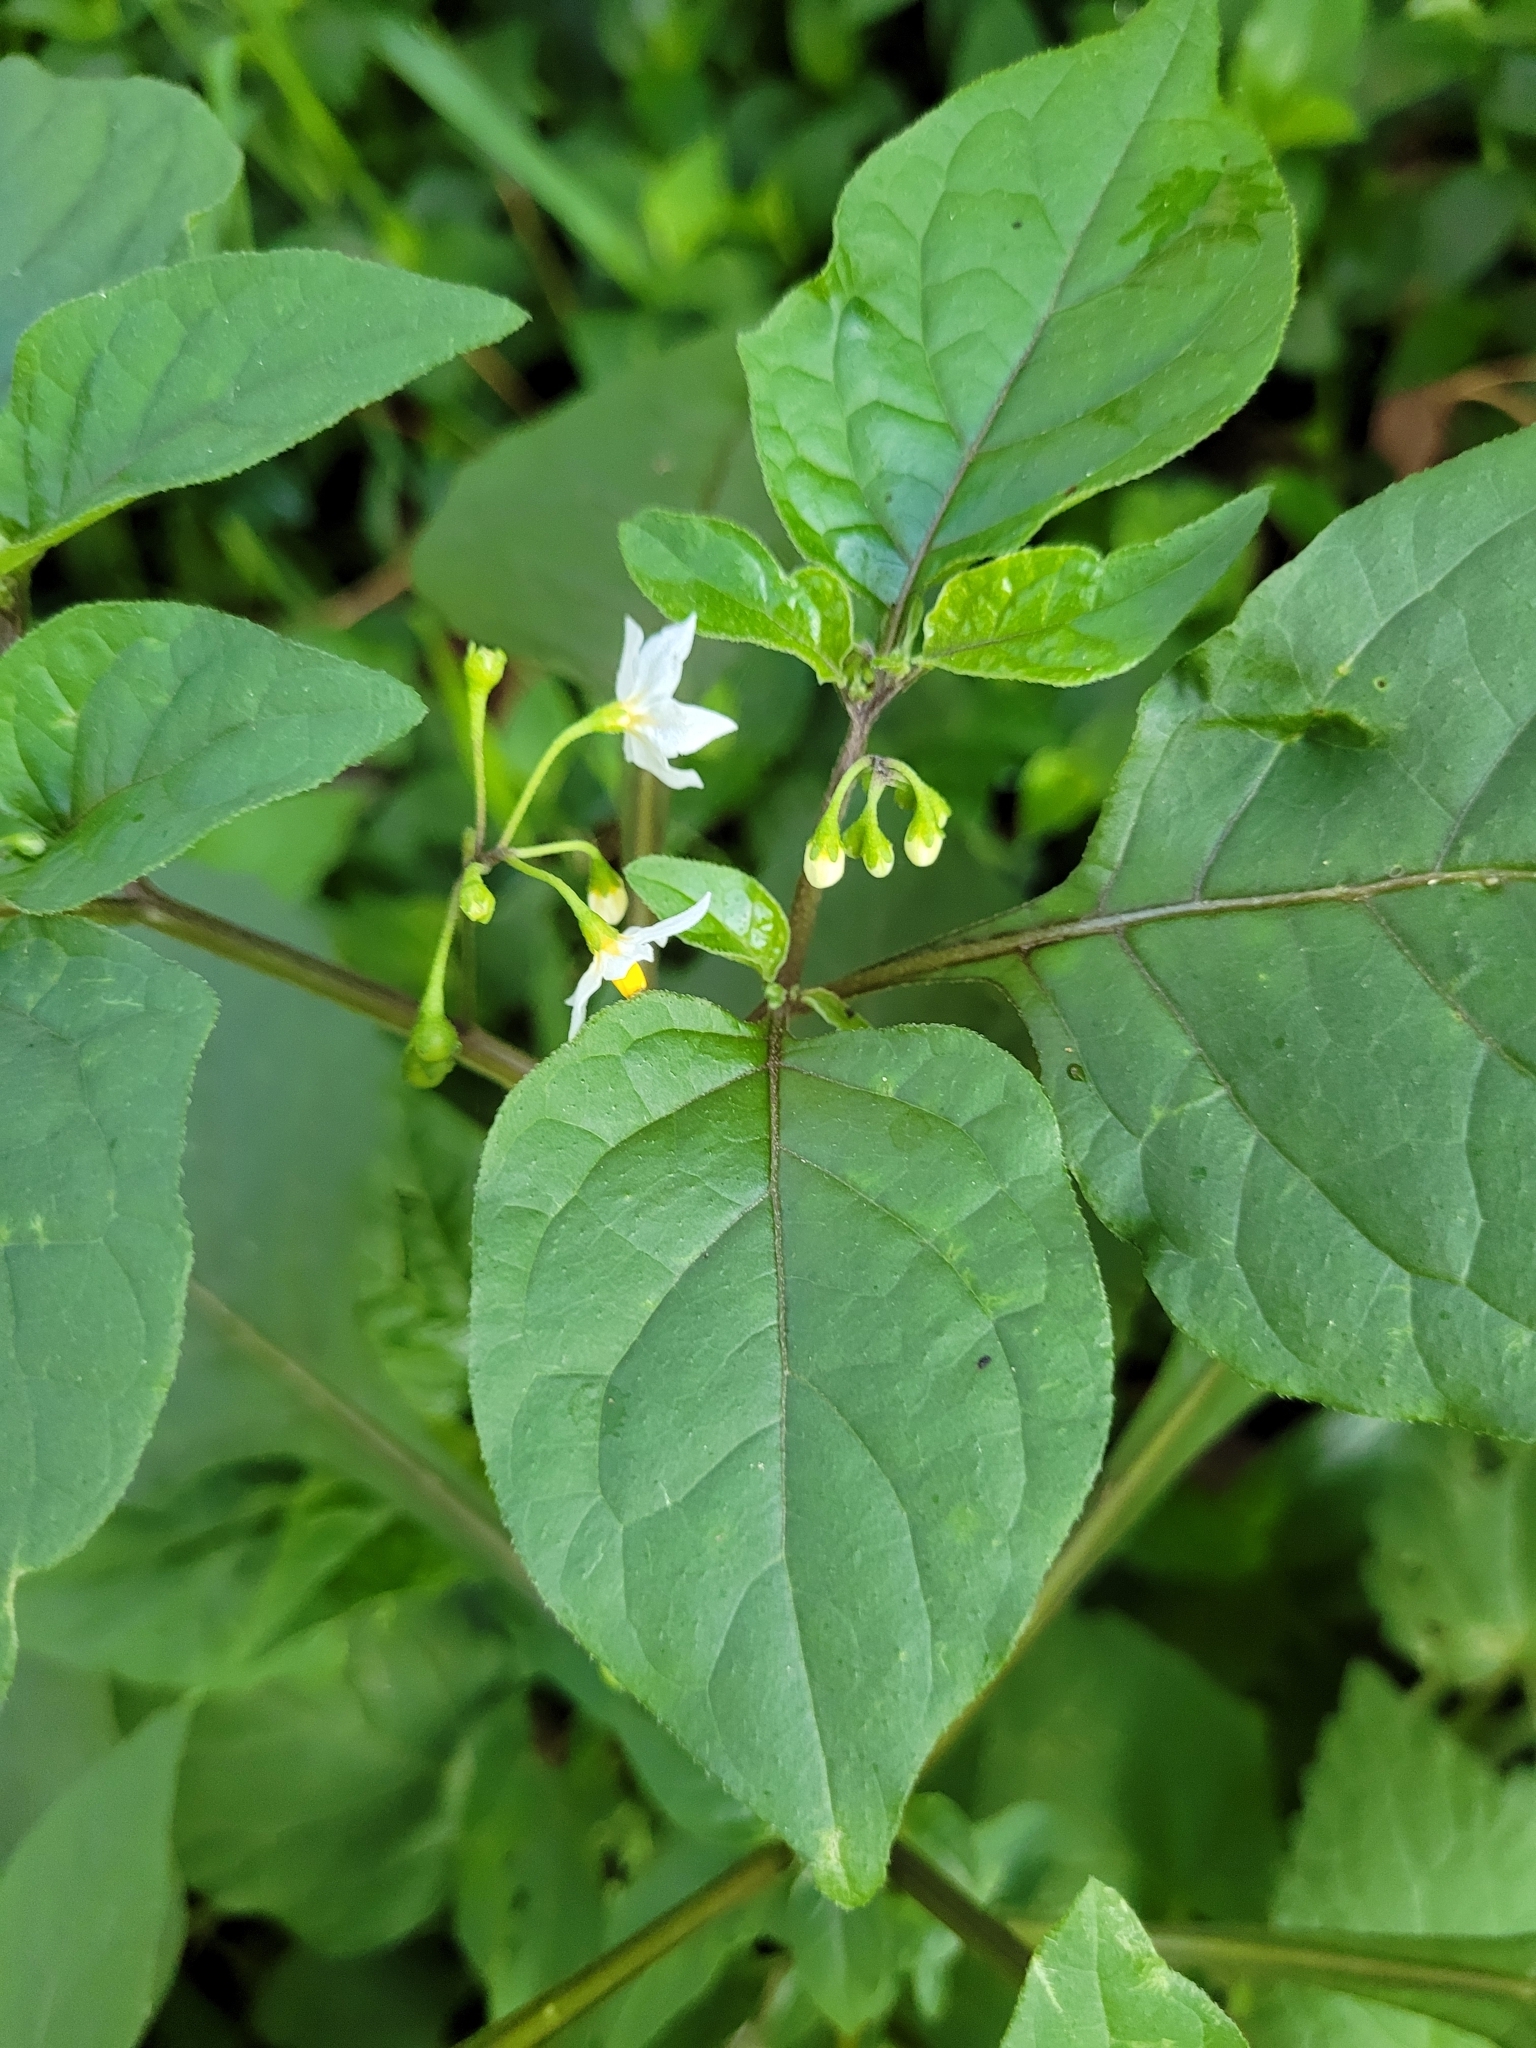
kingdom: Plantae
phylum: Tracheophyta
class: Magnoliopsida
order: Solanales
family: Solanaceae
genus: Solanum
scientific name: Solanum nigrum
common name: Black nightshade
